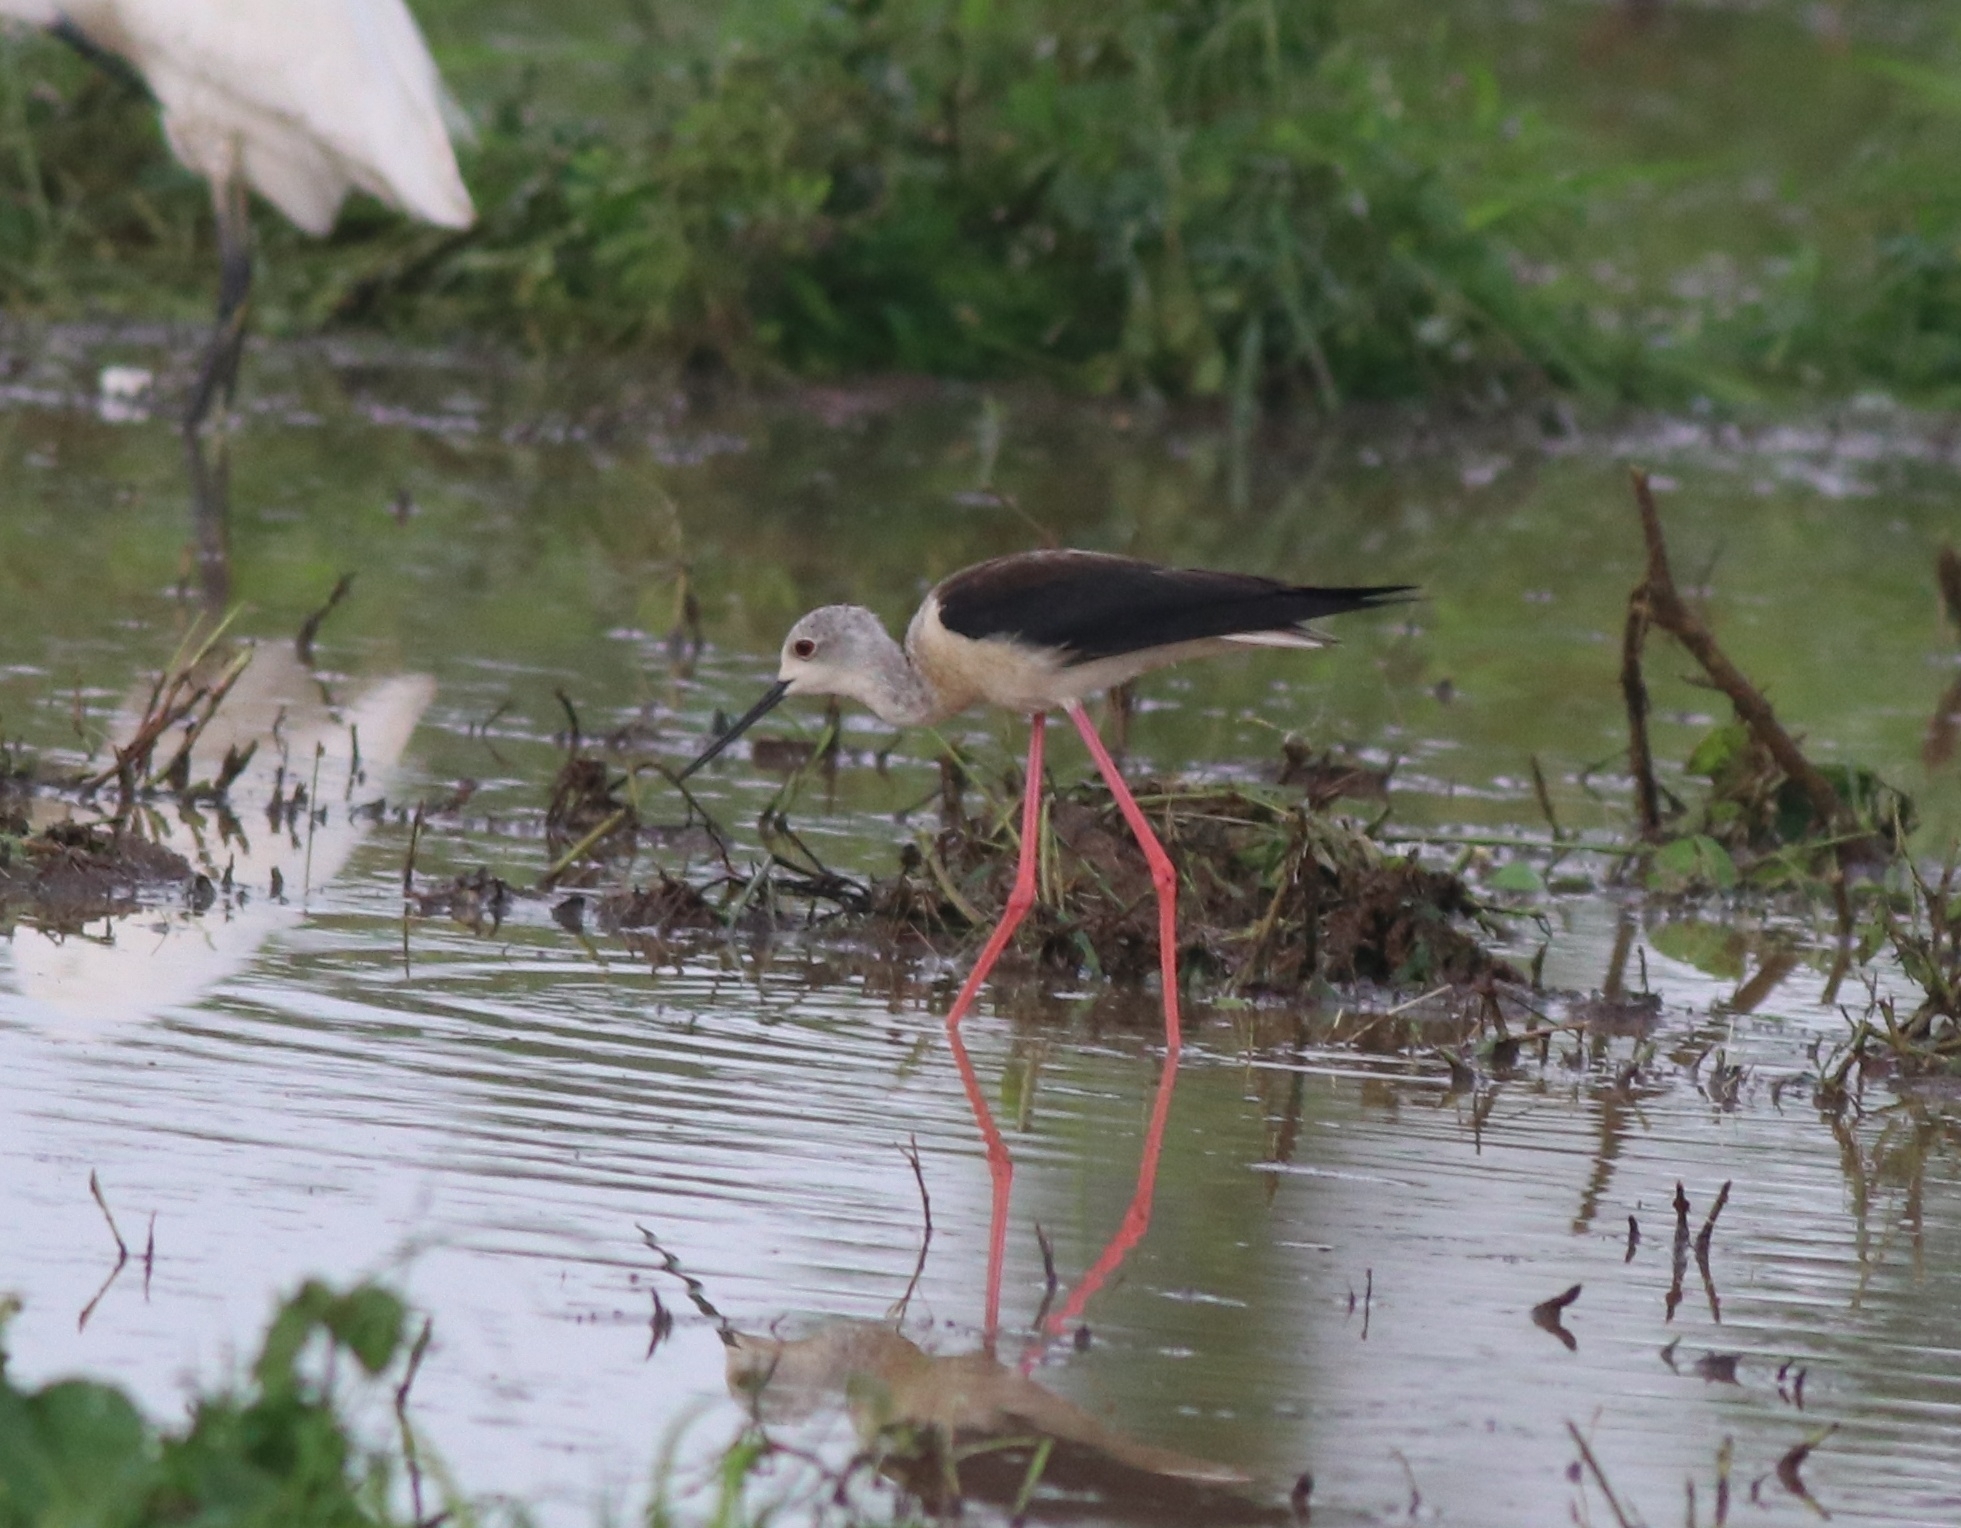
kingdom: Animalia
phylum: Chordata
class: Aves
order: Charadriiformes
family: Recurvirostridae
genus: Himantopus
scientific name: Himantopus himantopus
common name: Black-winged stilt
